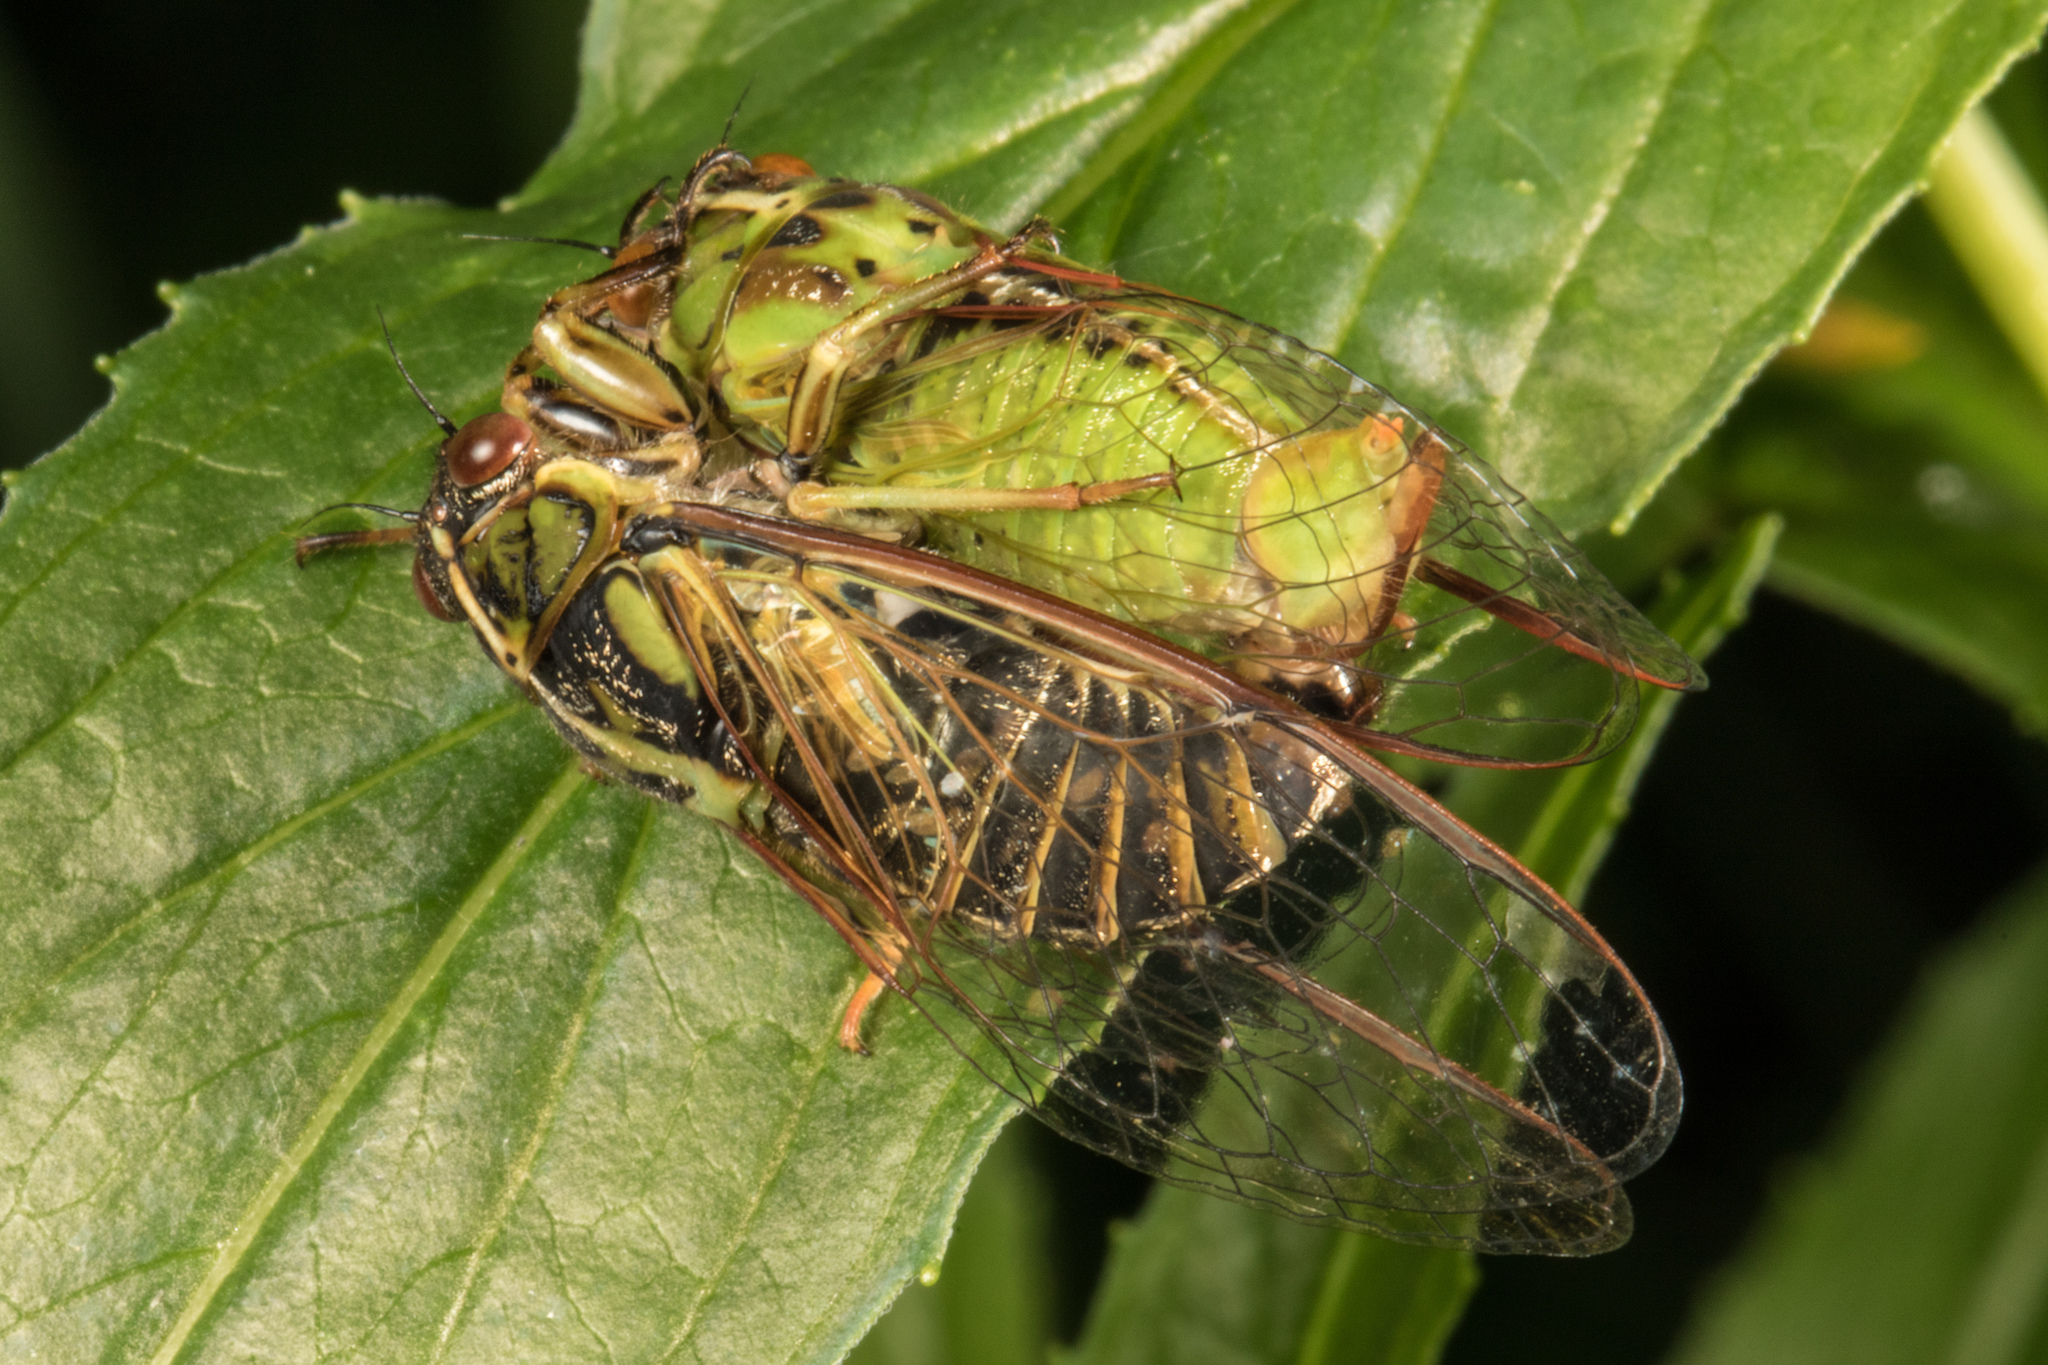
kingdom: Animalia
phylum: Arthropoda
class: Insecta
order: Hemiptera
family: Cicadidae
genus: Kikihia
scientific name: Kikihia muta
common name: Variable cicada
